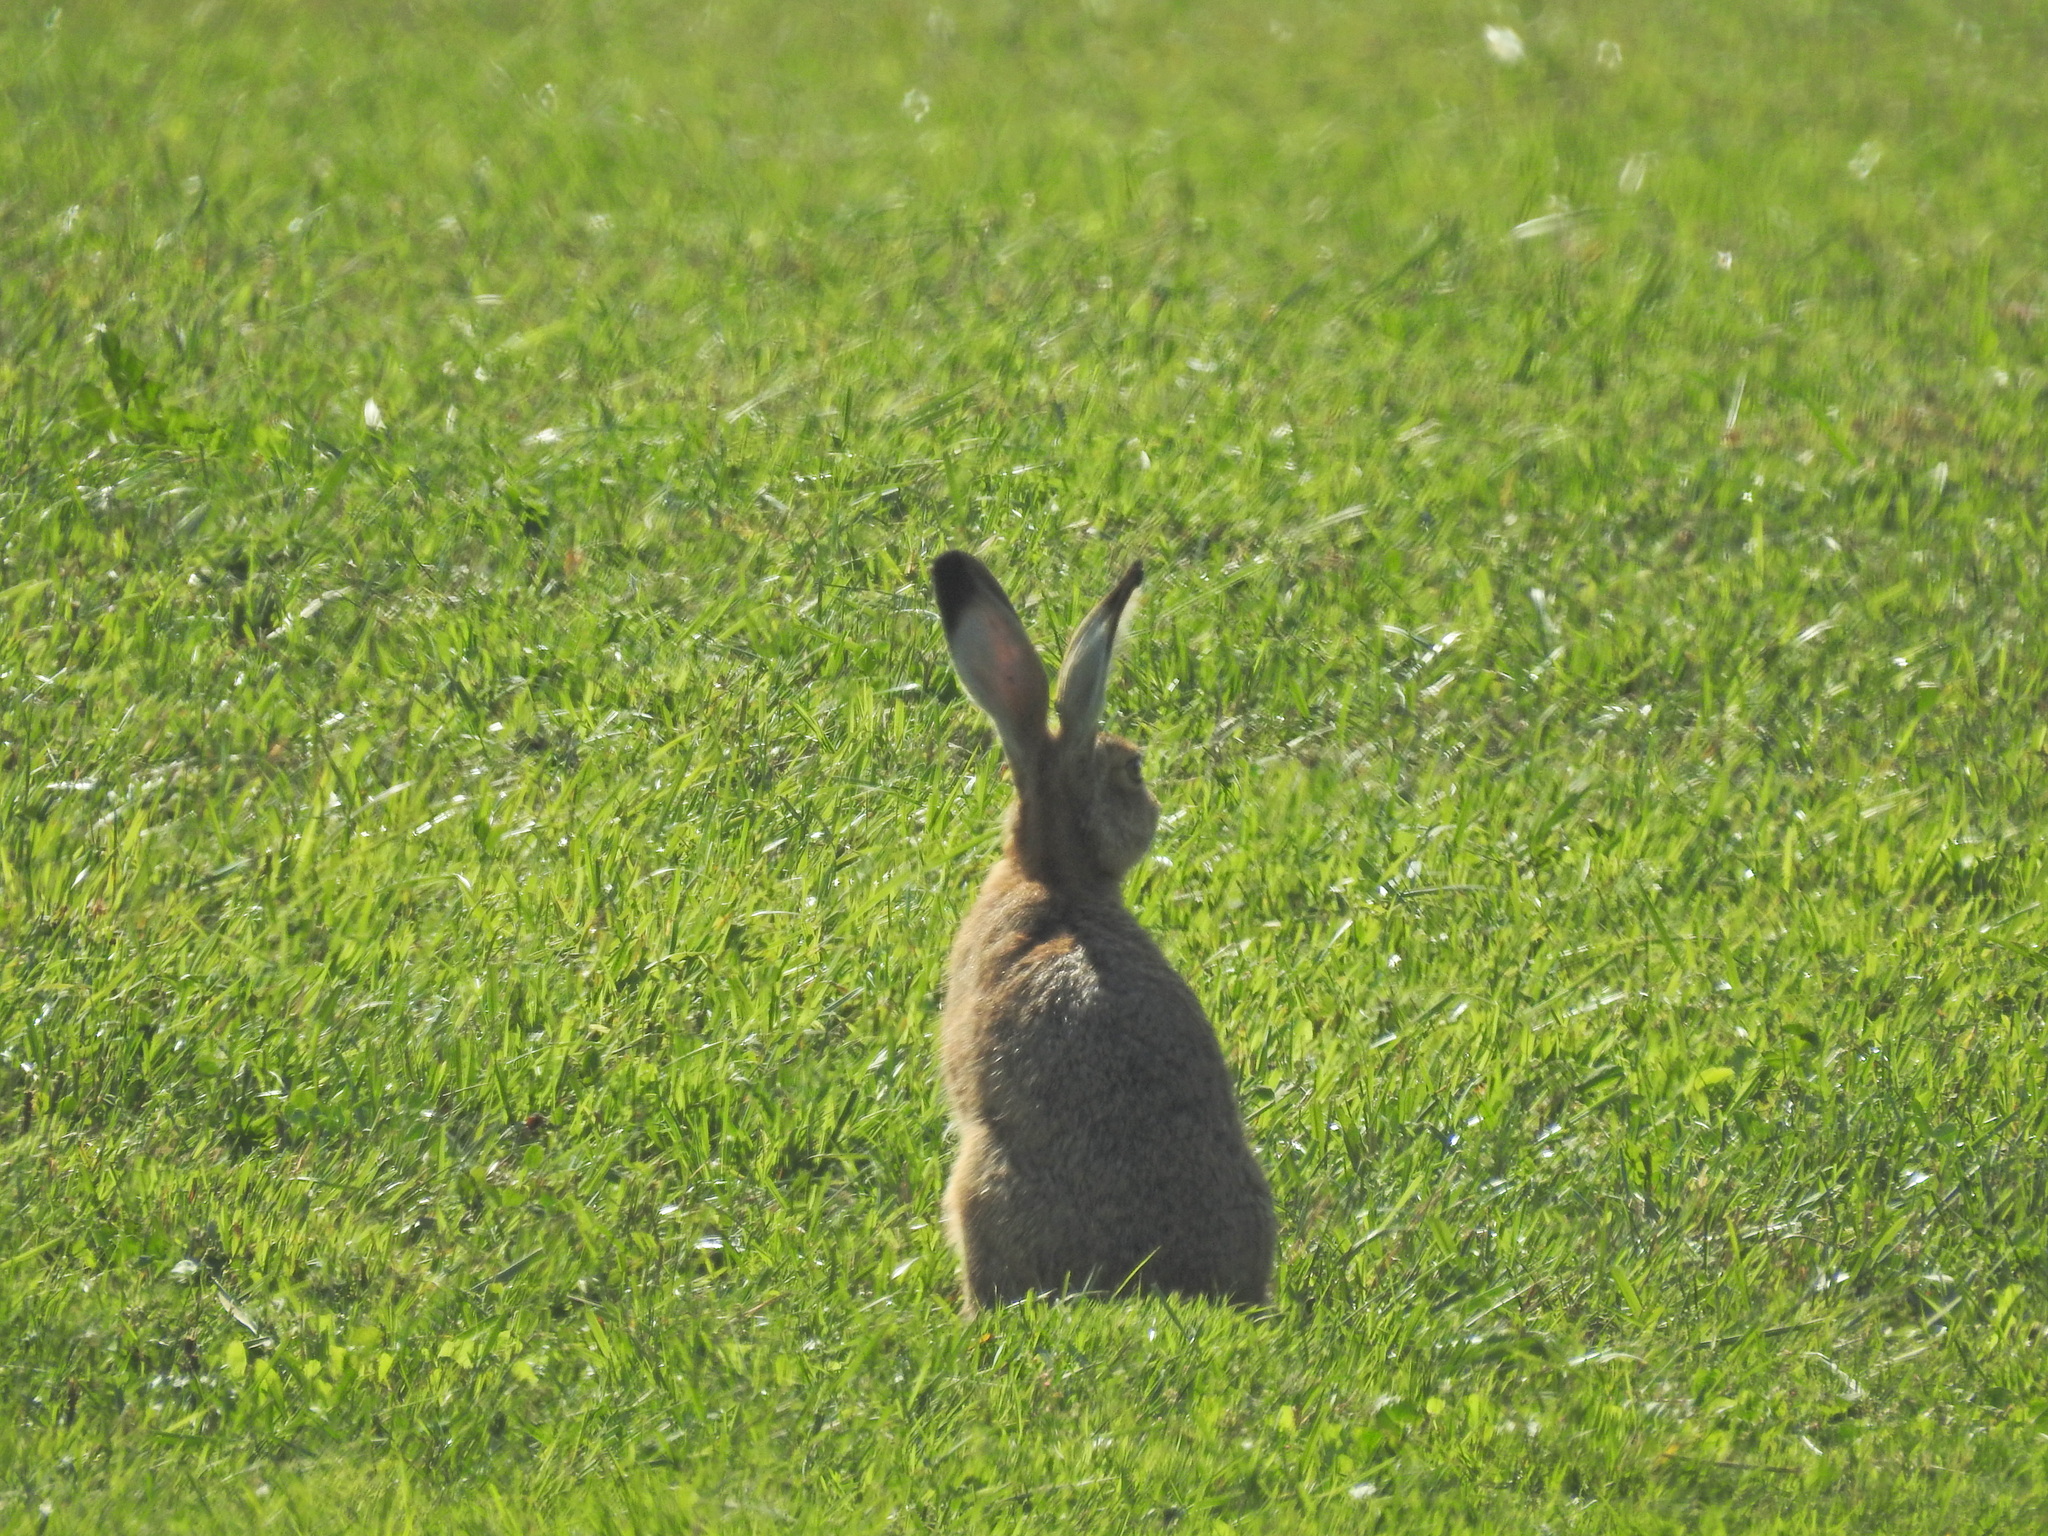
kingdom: Animalia
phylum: Chordata
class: Mammalia
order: Lagomorpha
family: Leporidae
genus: Lepus
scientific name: Lepus europaeus
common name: European hare
